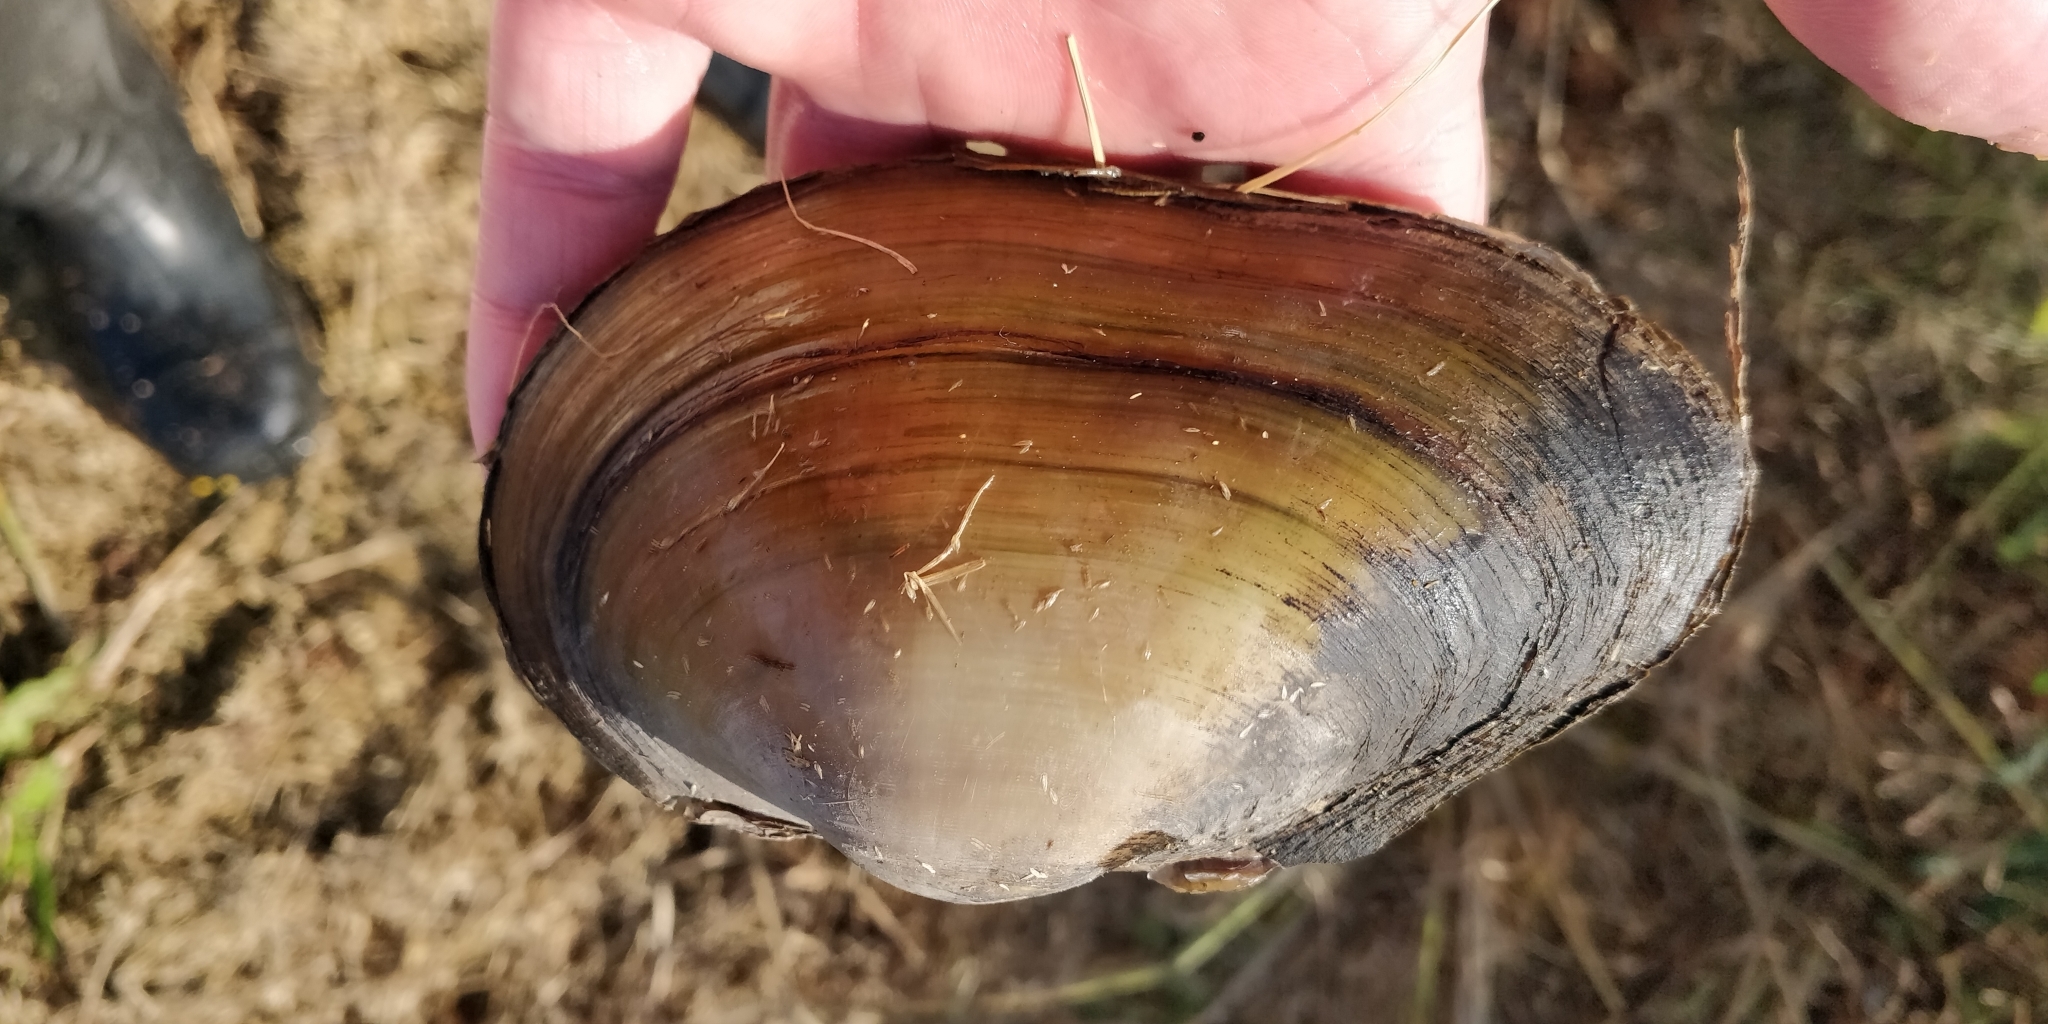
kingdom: Animalia
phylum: Mollusca
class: Bivalvia
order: Unionida
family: Unionidae
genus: Pyganodon
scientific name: Pyganodon grandis
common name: Giant floater
